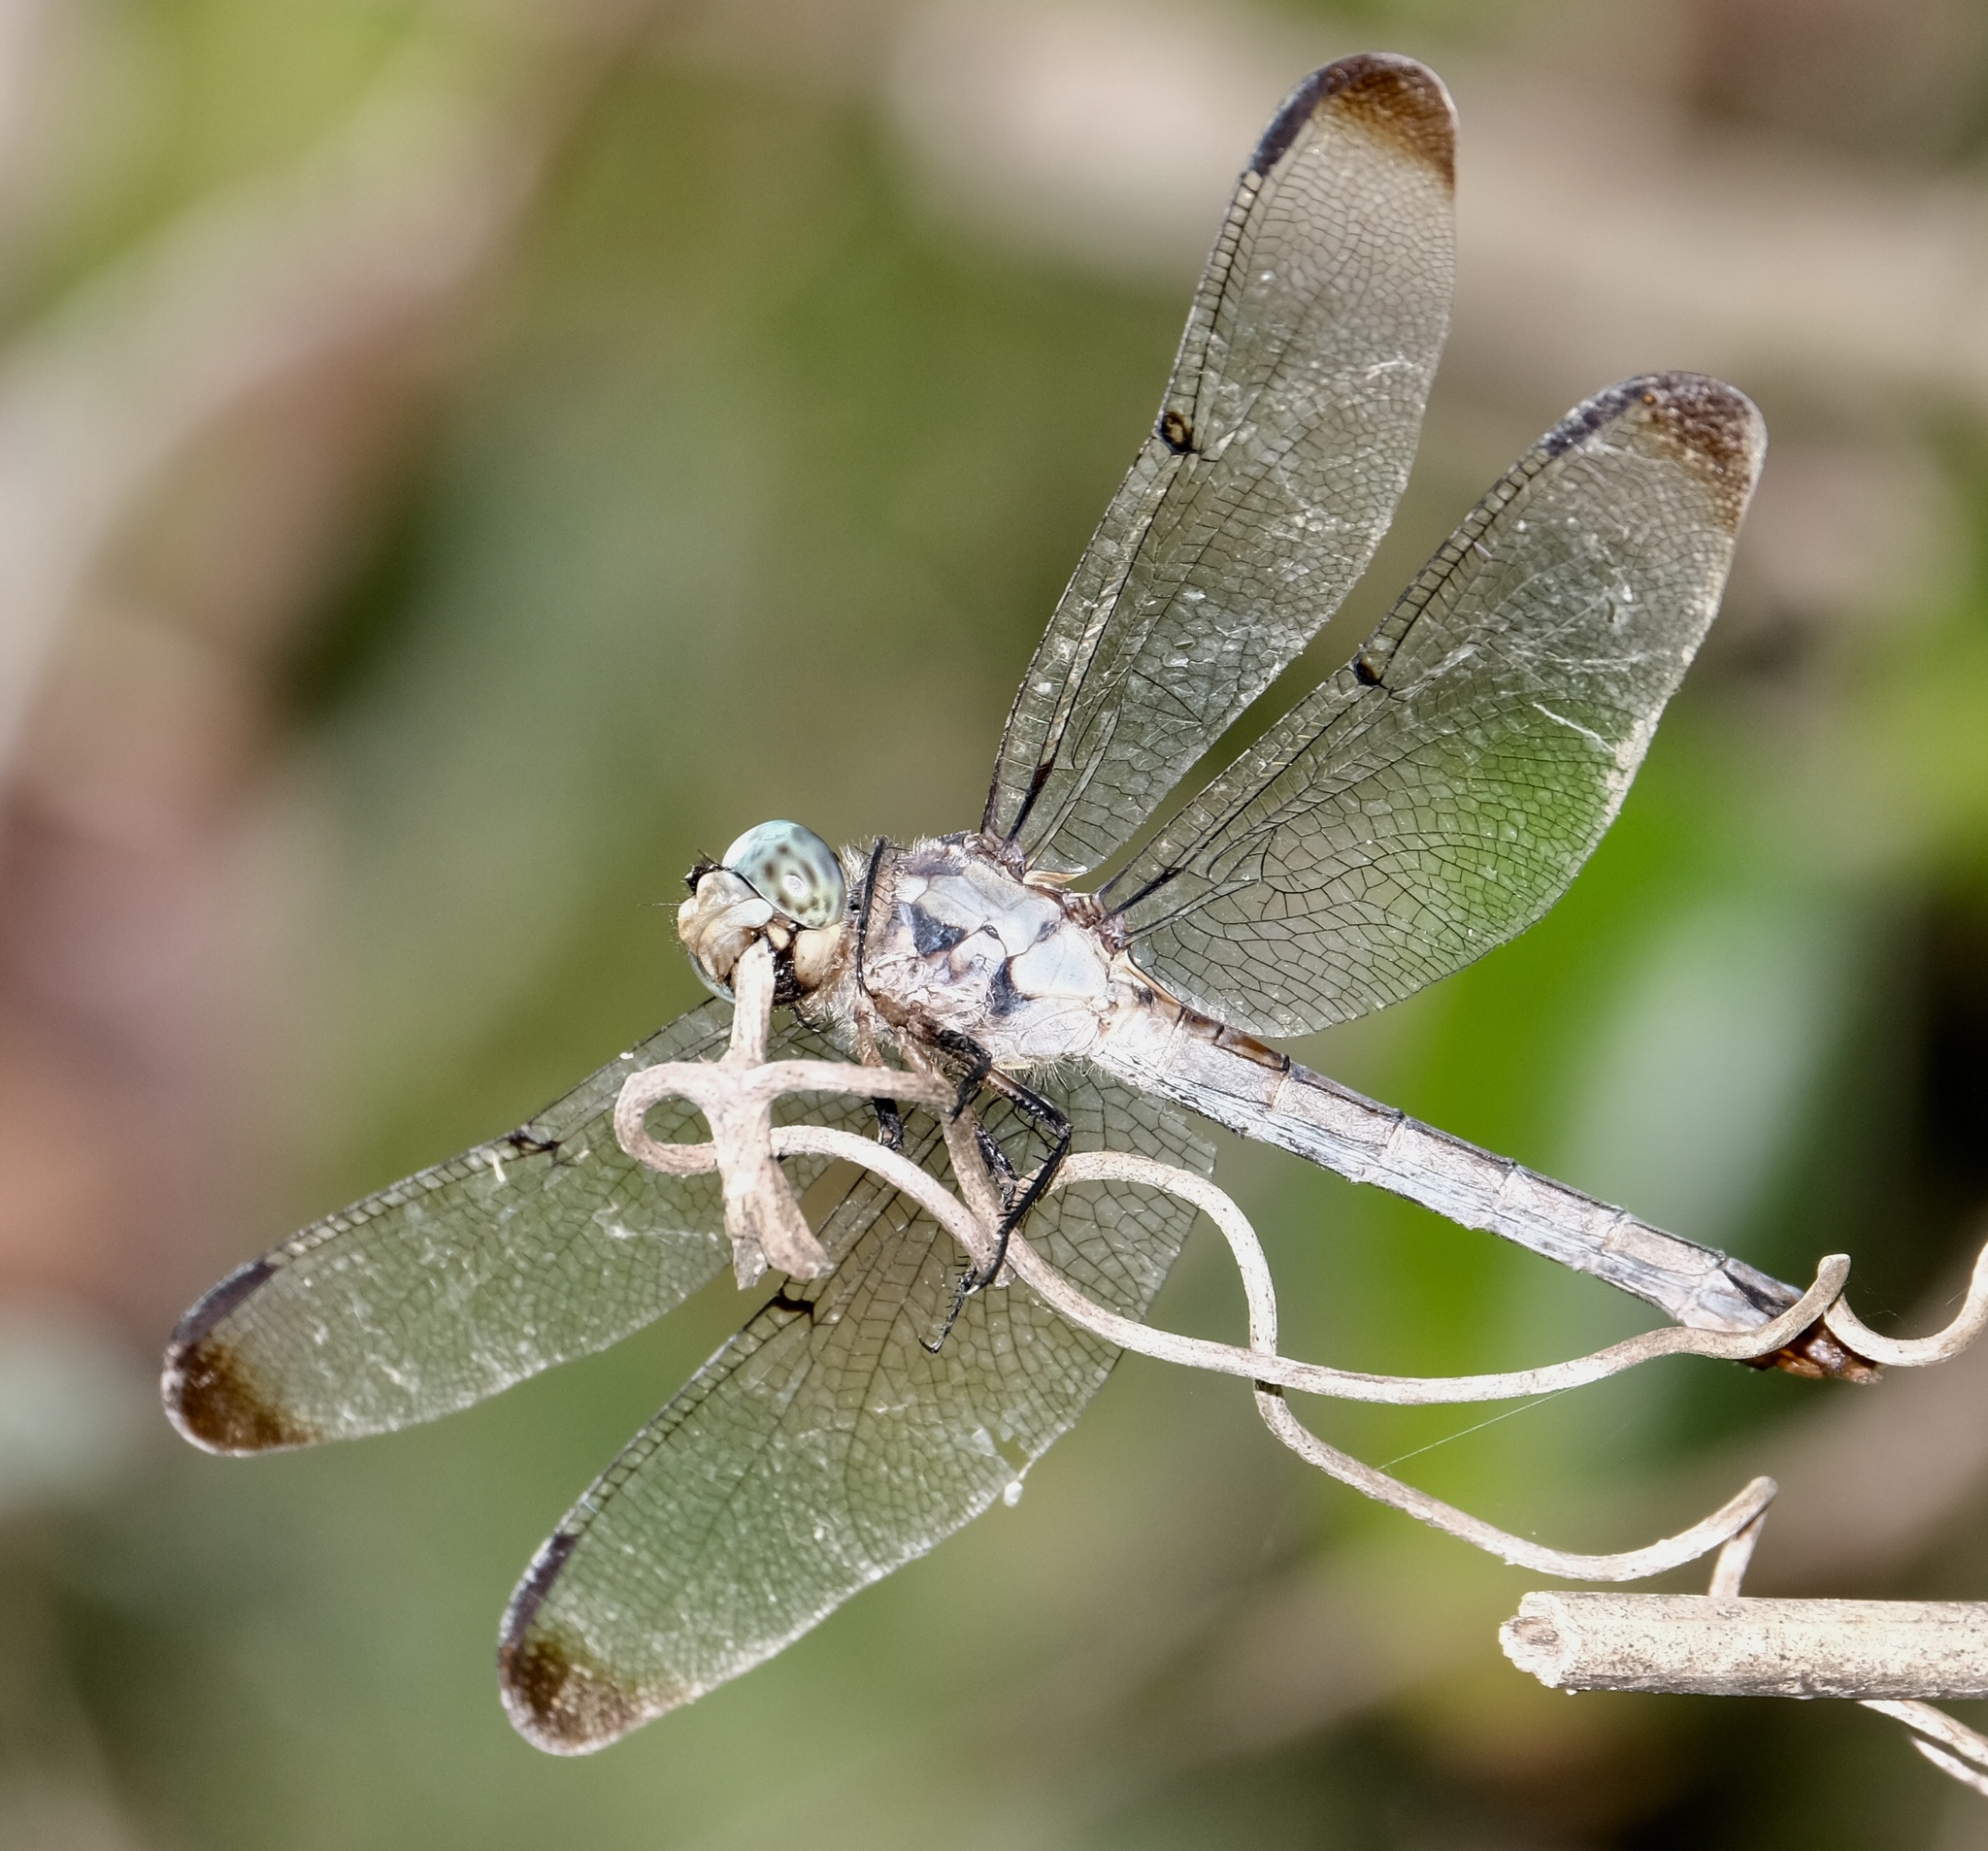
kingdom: Animalia
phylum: Arthropoda
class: Insecta
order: Odonata
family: Libellulidae
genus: Libellula
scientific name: Libellula vibrans
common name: Great blue skimmer
